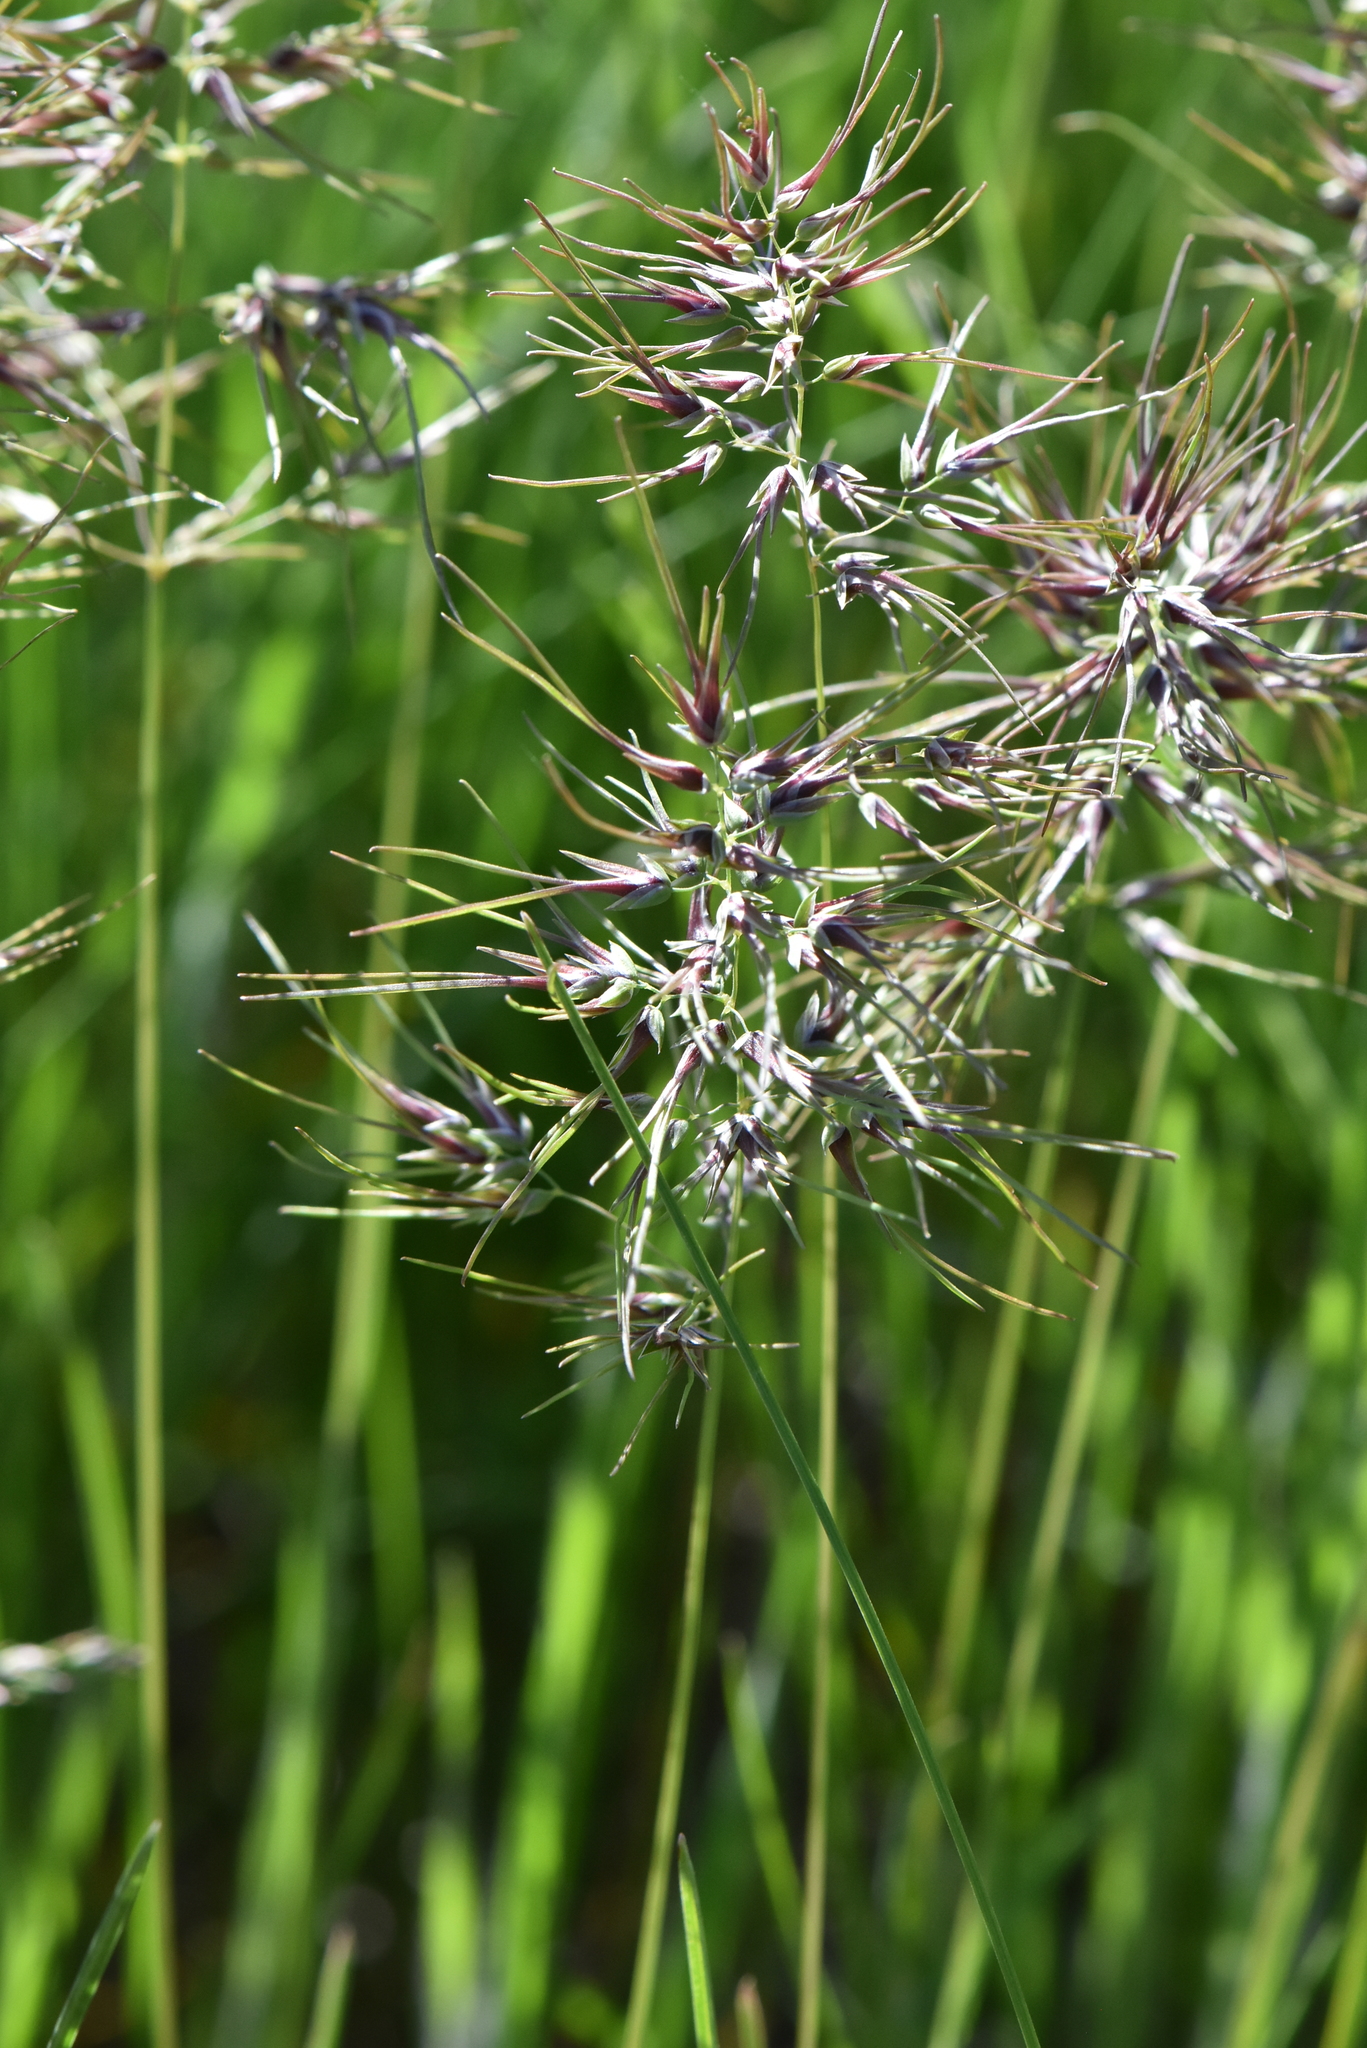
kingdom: Plantae
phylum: Tracheophyta
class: Liliopsida
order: Poales
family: Poaceae
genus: Poa
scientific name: Poa bulbosa
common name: Bulbous bluegrass
